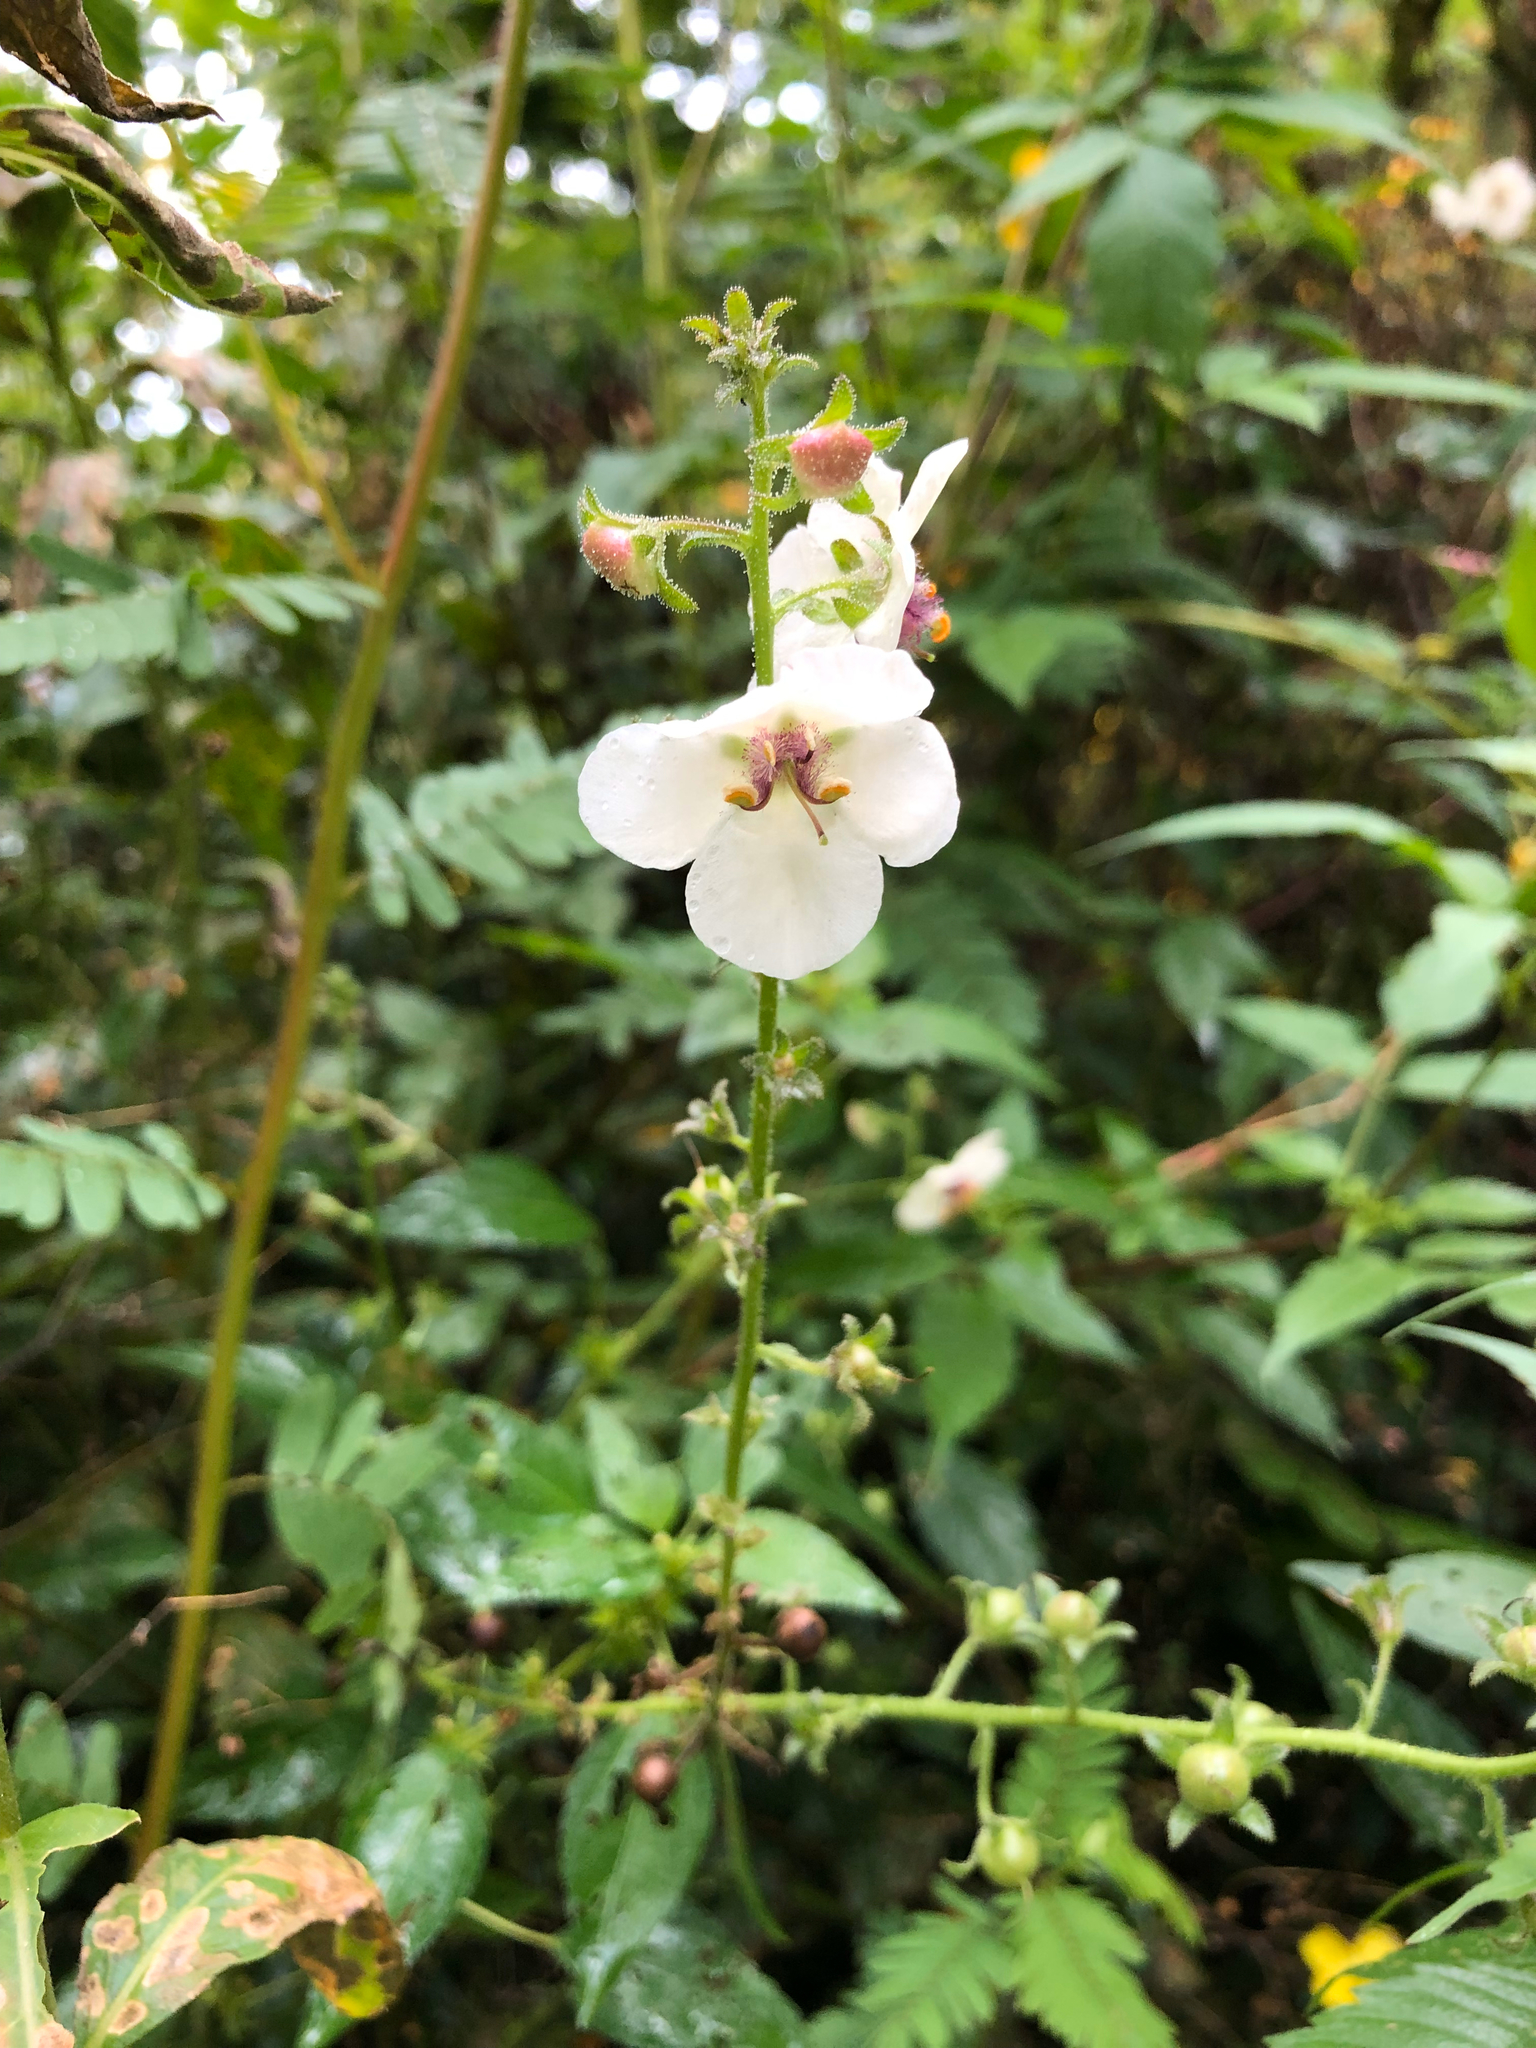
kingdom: Plantae
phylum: Tracheophyta
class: Magnoliopsida
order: Lamiales
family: Scrophulariaceae
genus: Verbascum
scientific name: Verbascum blattaria
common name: Moth mullein
